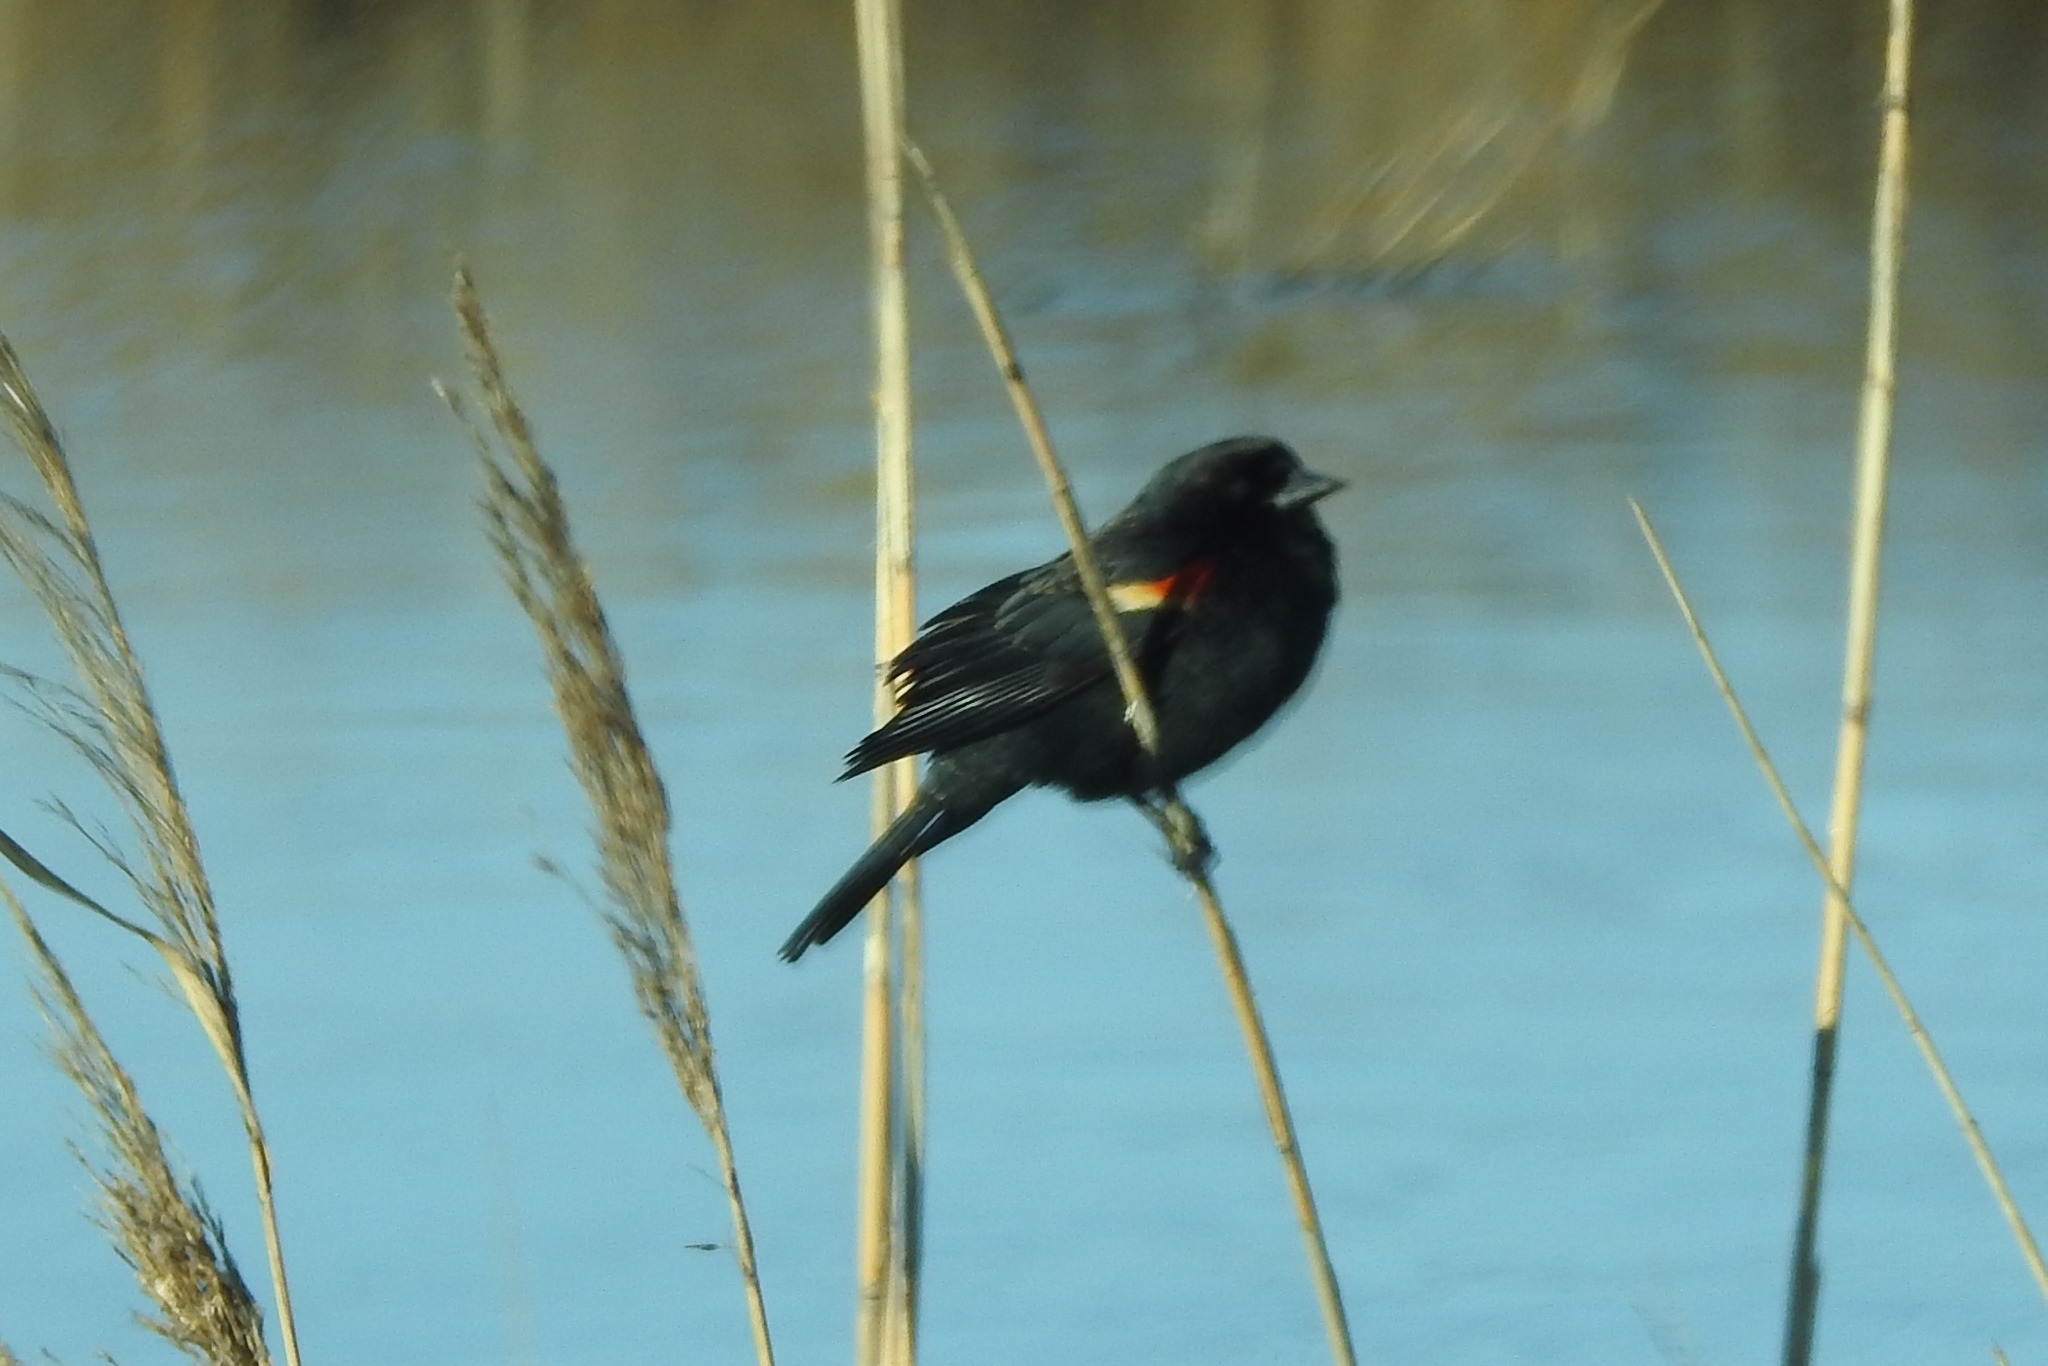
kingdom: Animalia
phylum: Chordata
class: Aves
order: Passeriformes
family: Icteridae
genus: Agelaius
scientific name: Agelaius phoeniceus
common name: Red-winged blackbird
